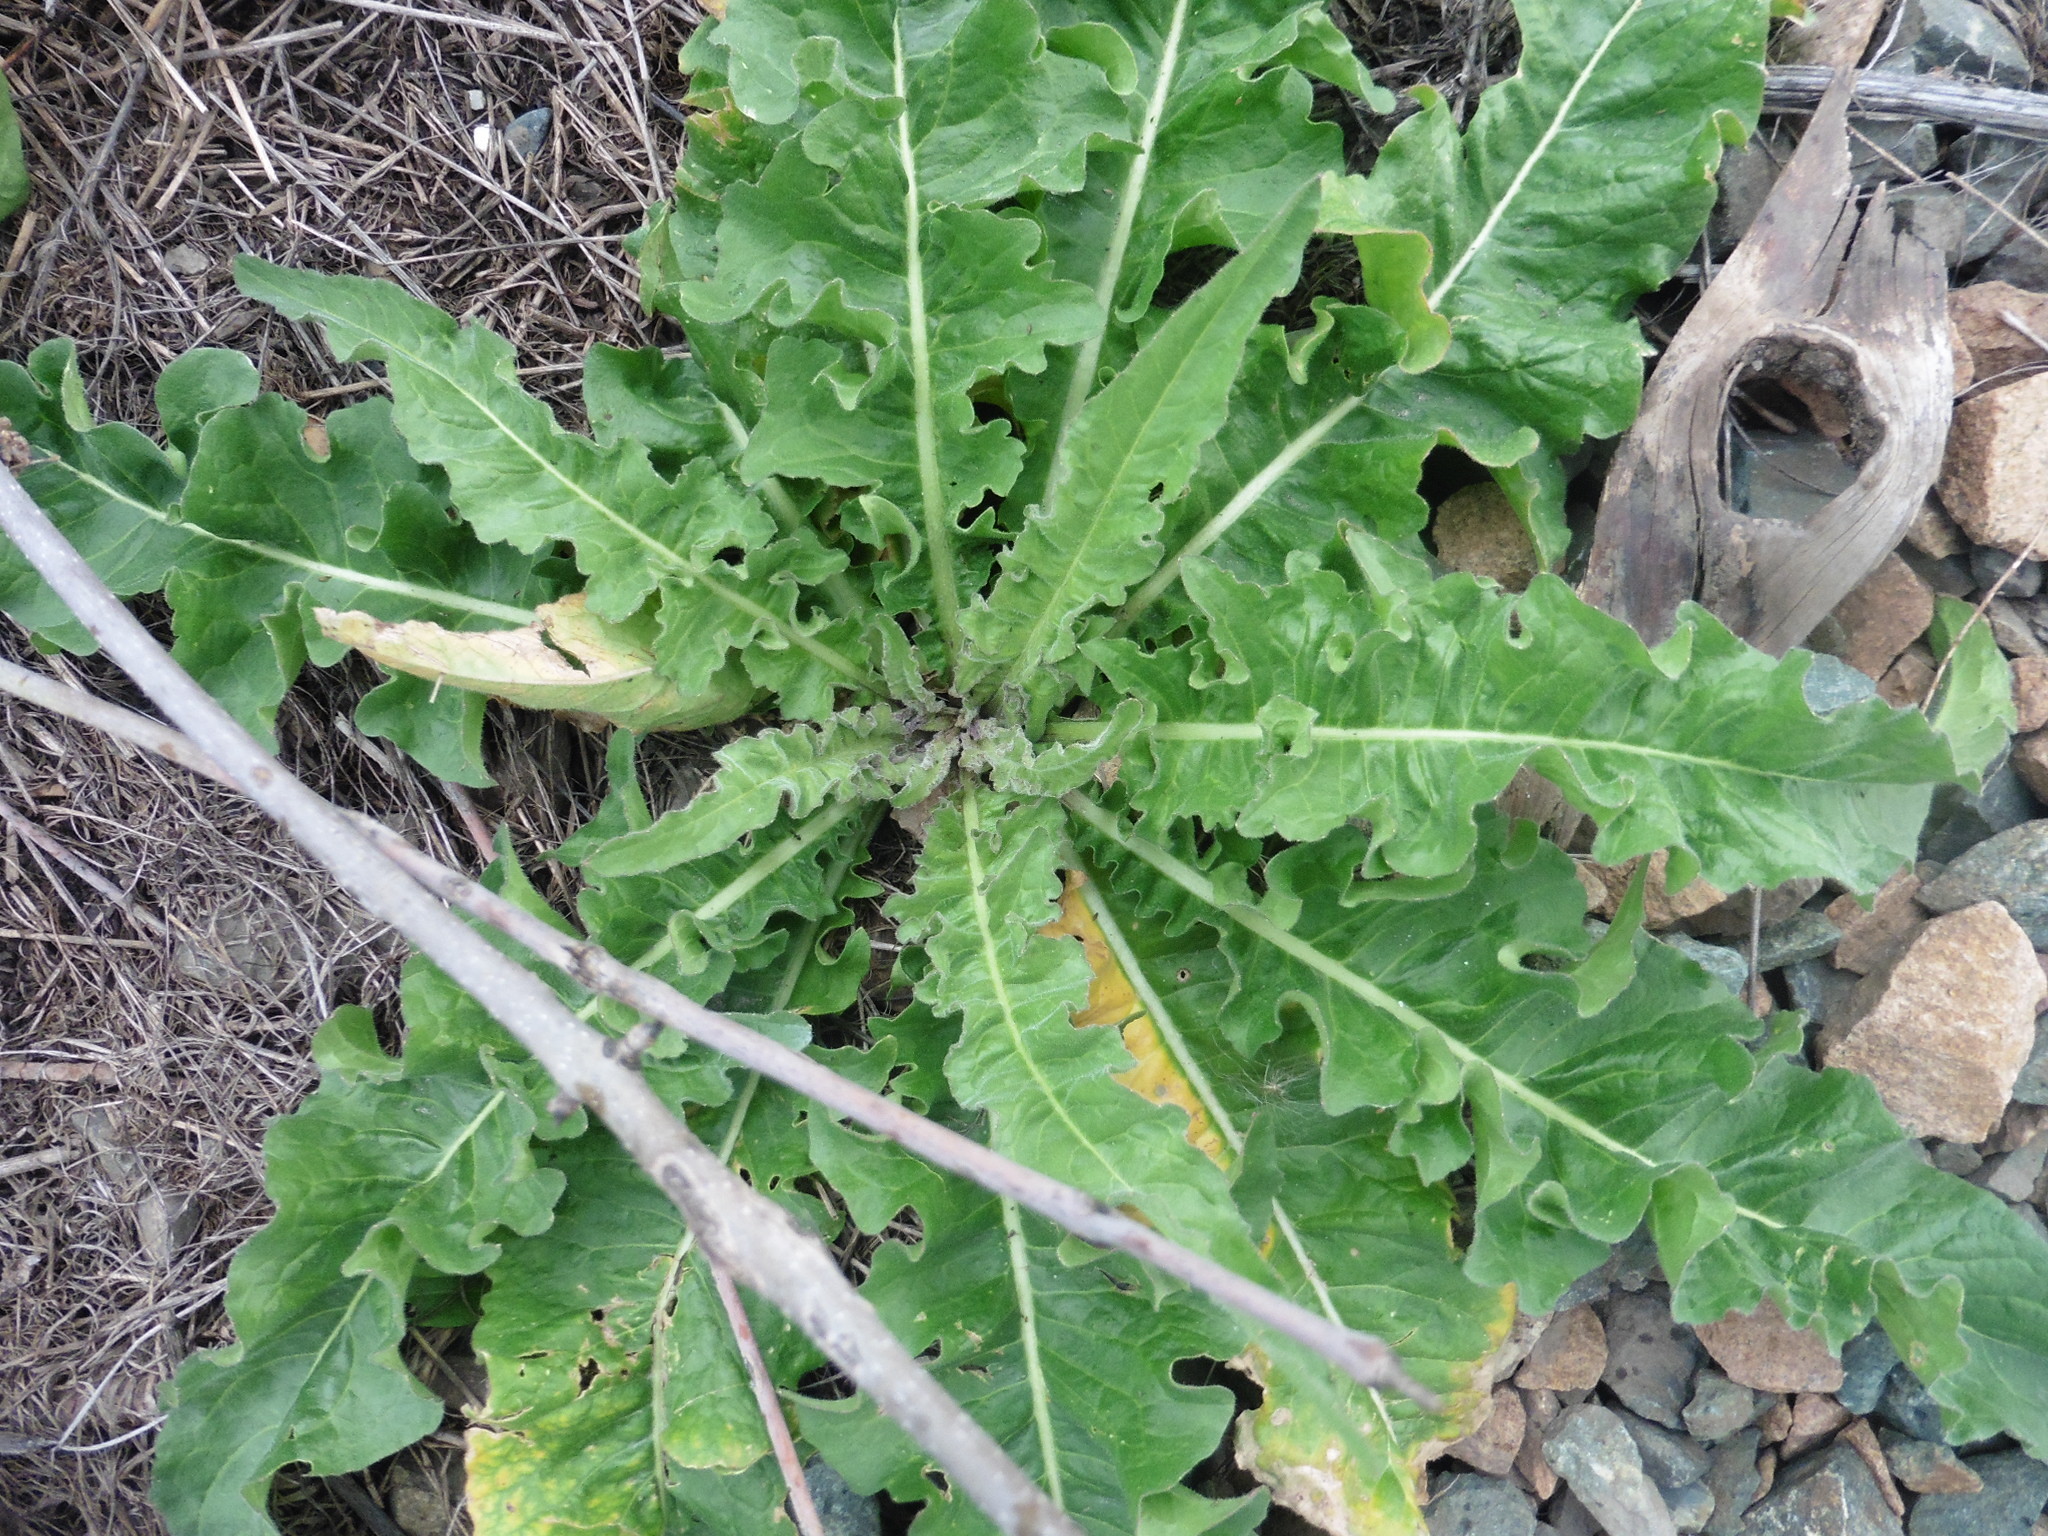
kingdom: Plantae
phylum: Tracheophyta
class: Magnoliopsida
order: Brassicales
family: Brassicaceae
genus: Bunias
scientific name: Bunias orientalis
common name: Warty-cabbage
